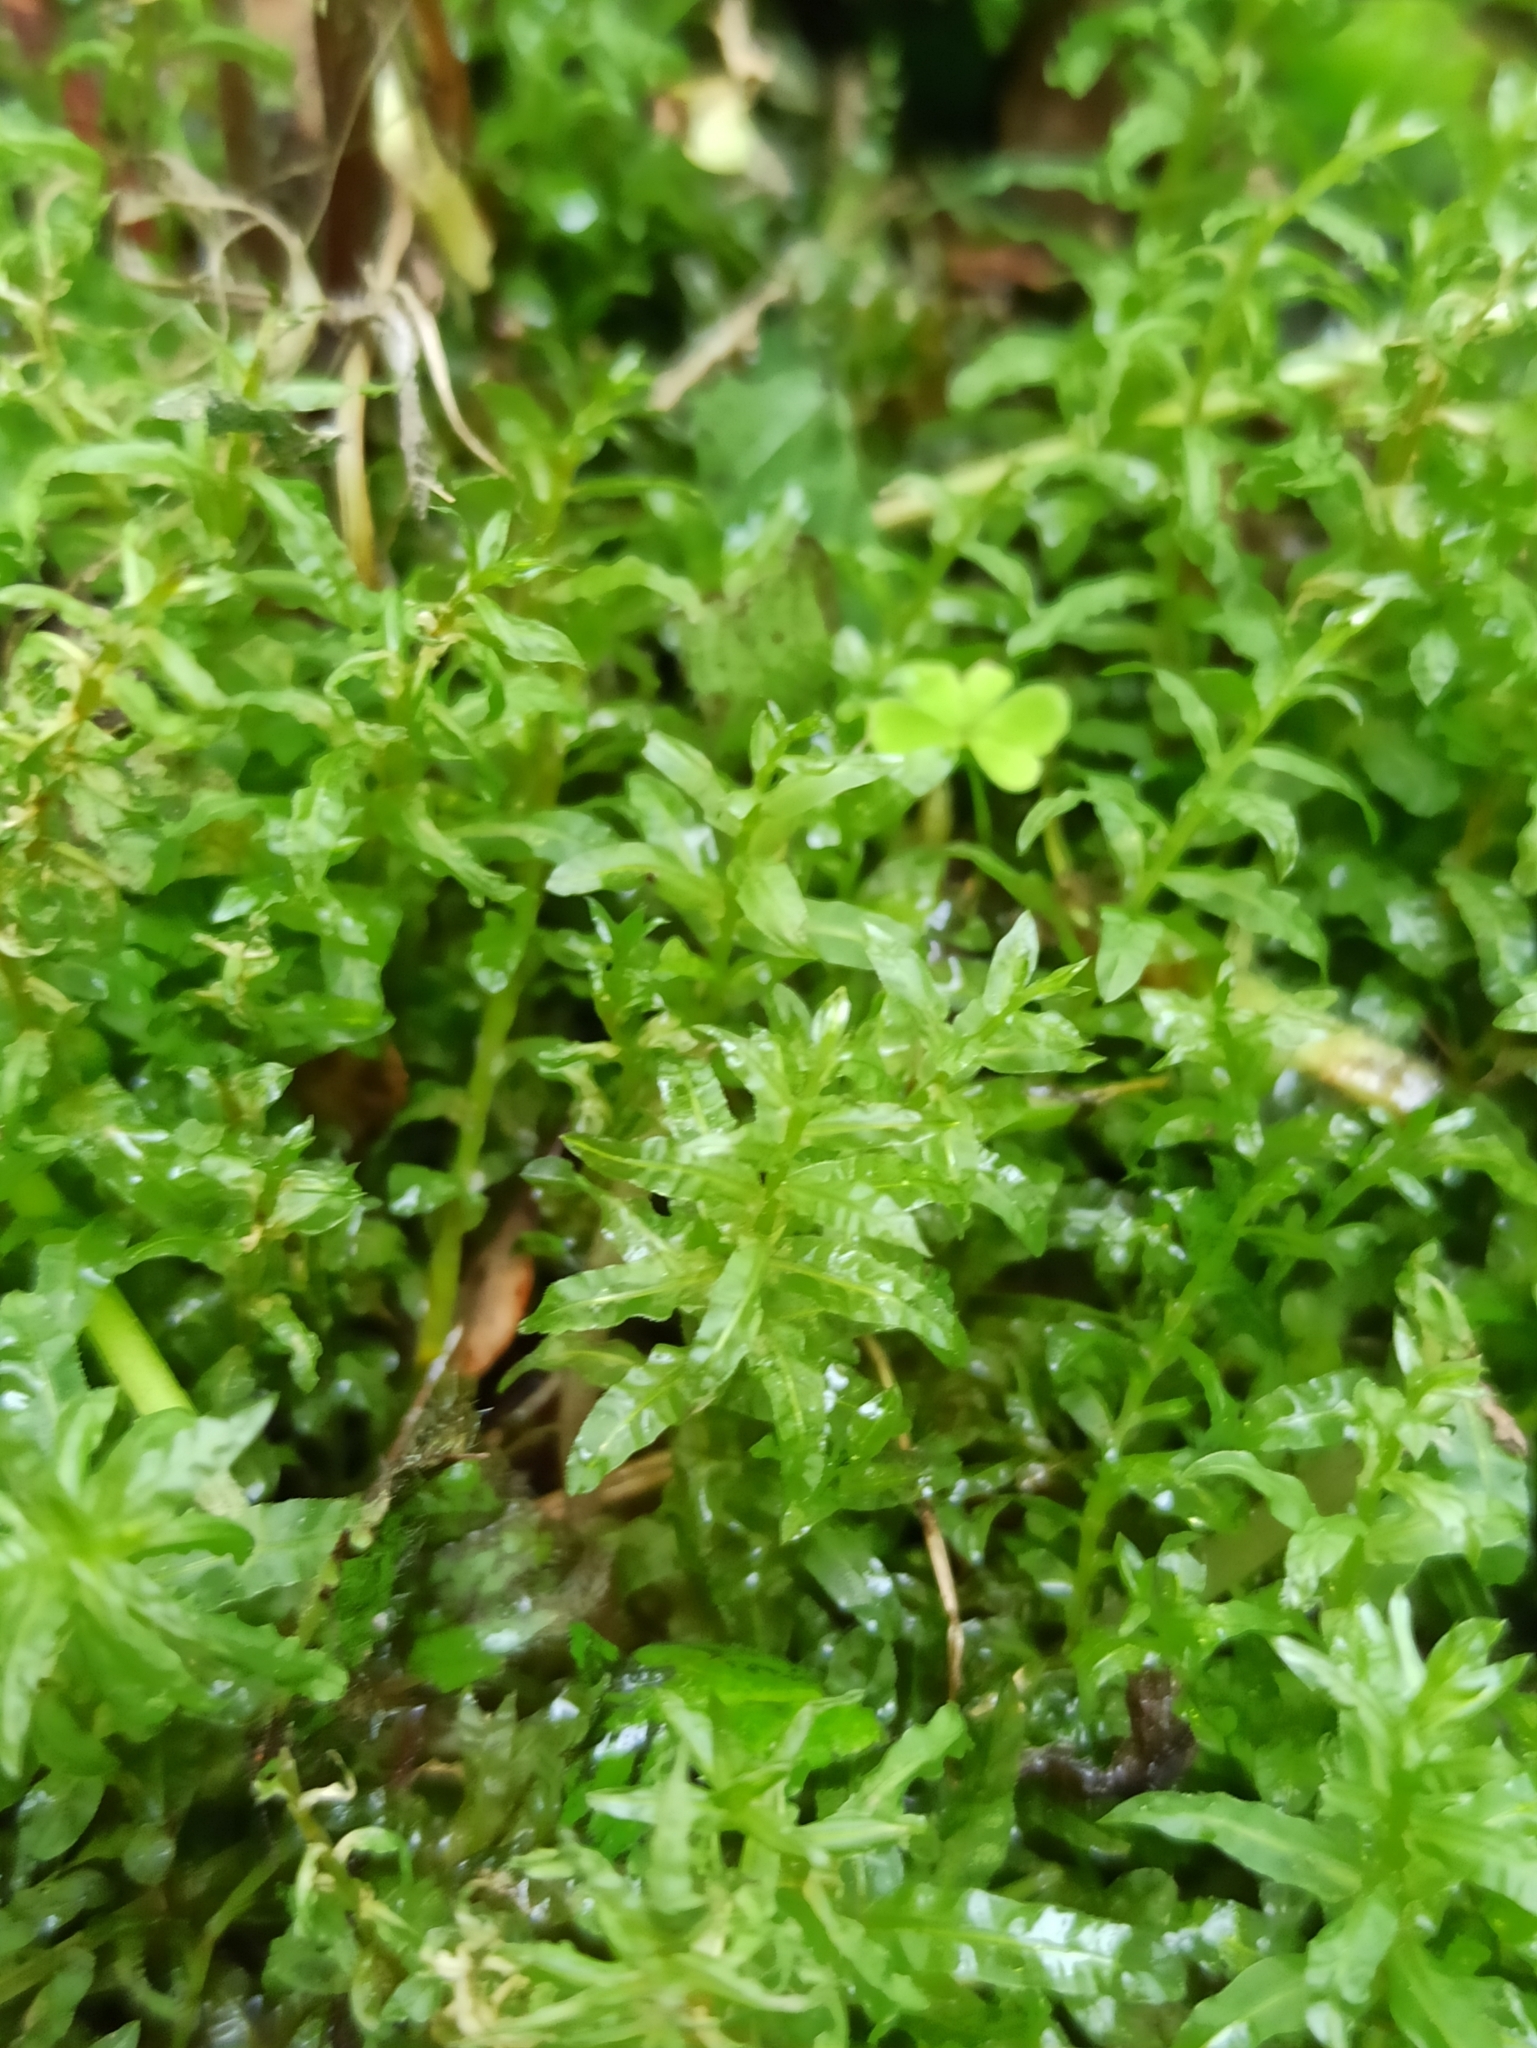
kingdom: Plantae
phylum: Bryophyta
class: Bryopsida
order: Bryales
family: Mniaceae
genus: Plagiomnium
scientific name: Plagiomnium undulatum
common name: Hart's-tongue thyme-moss
